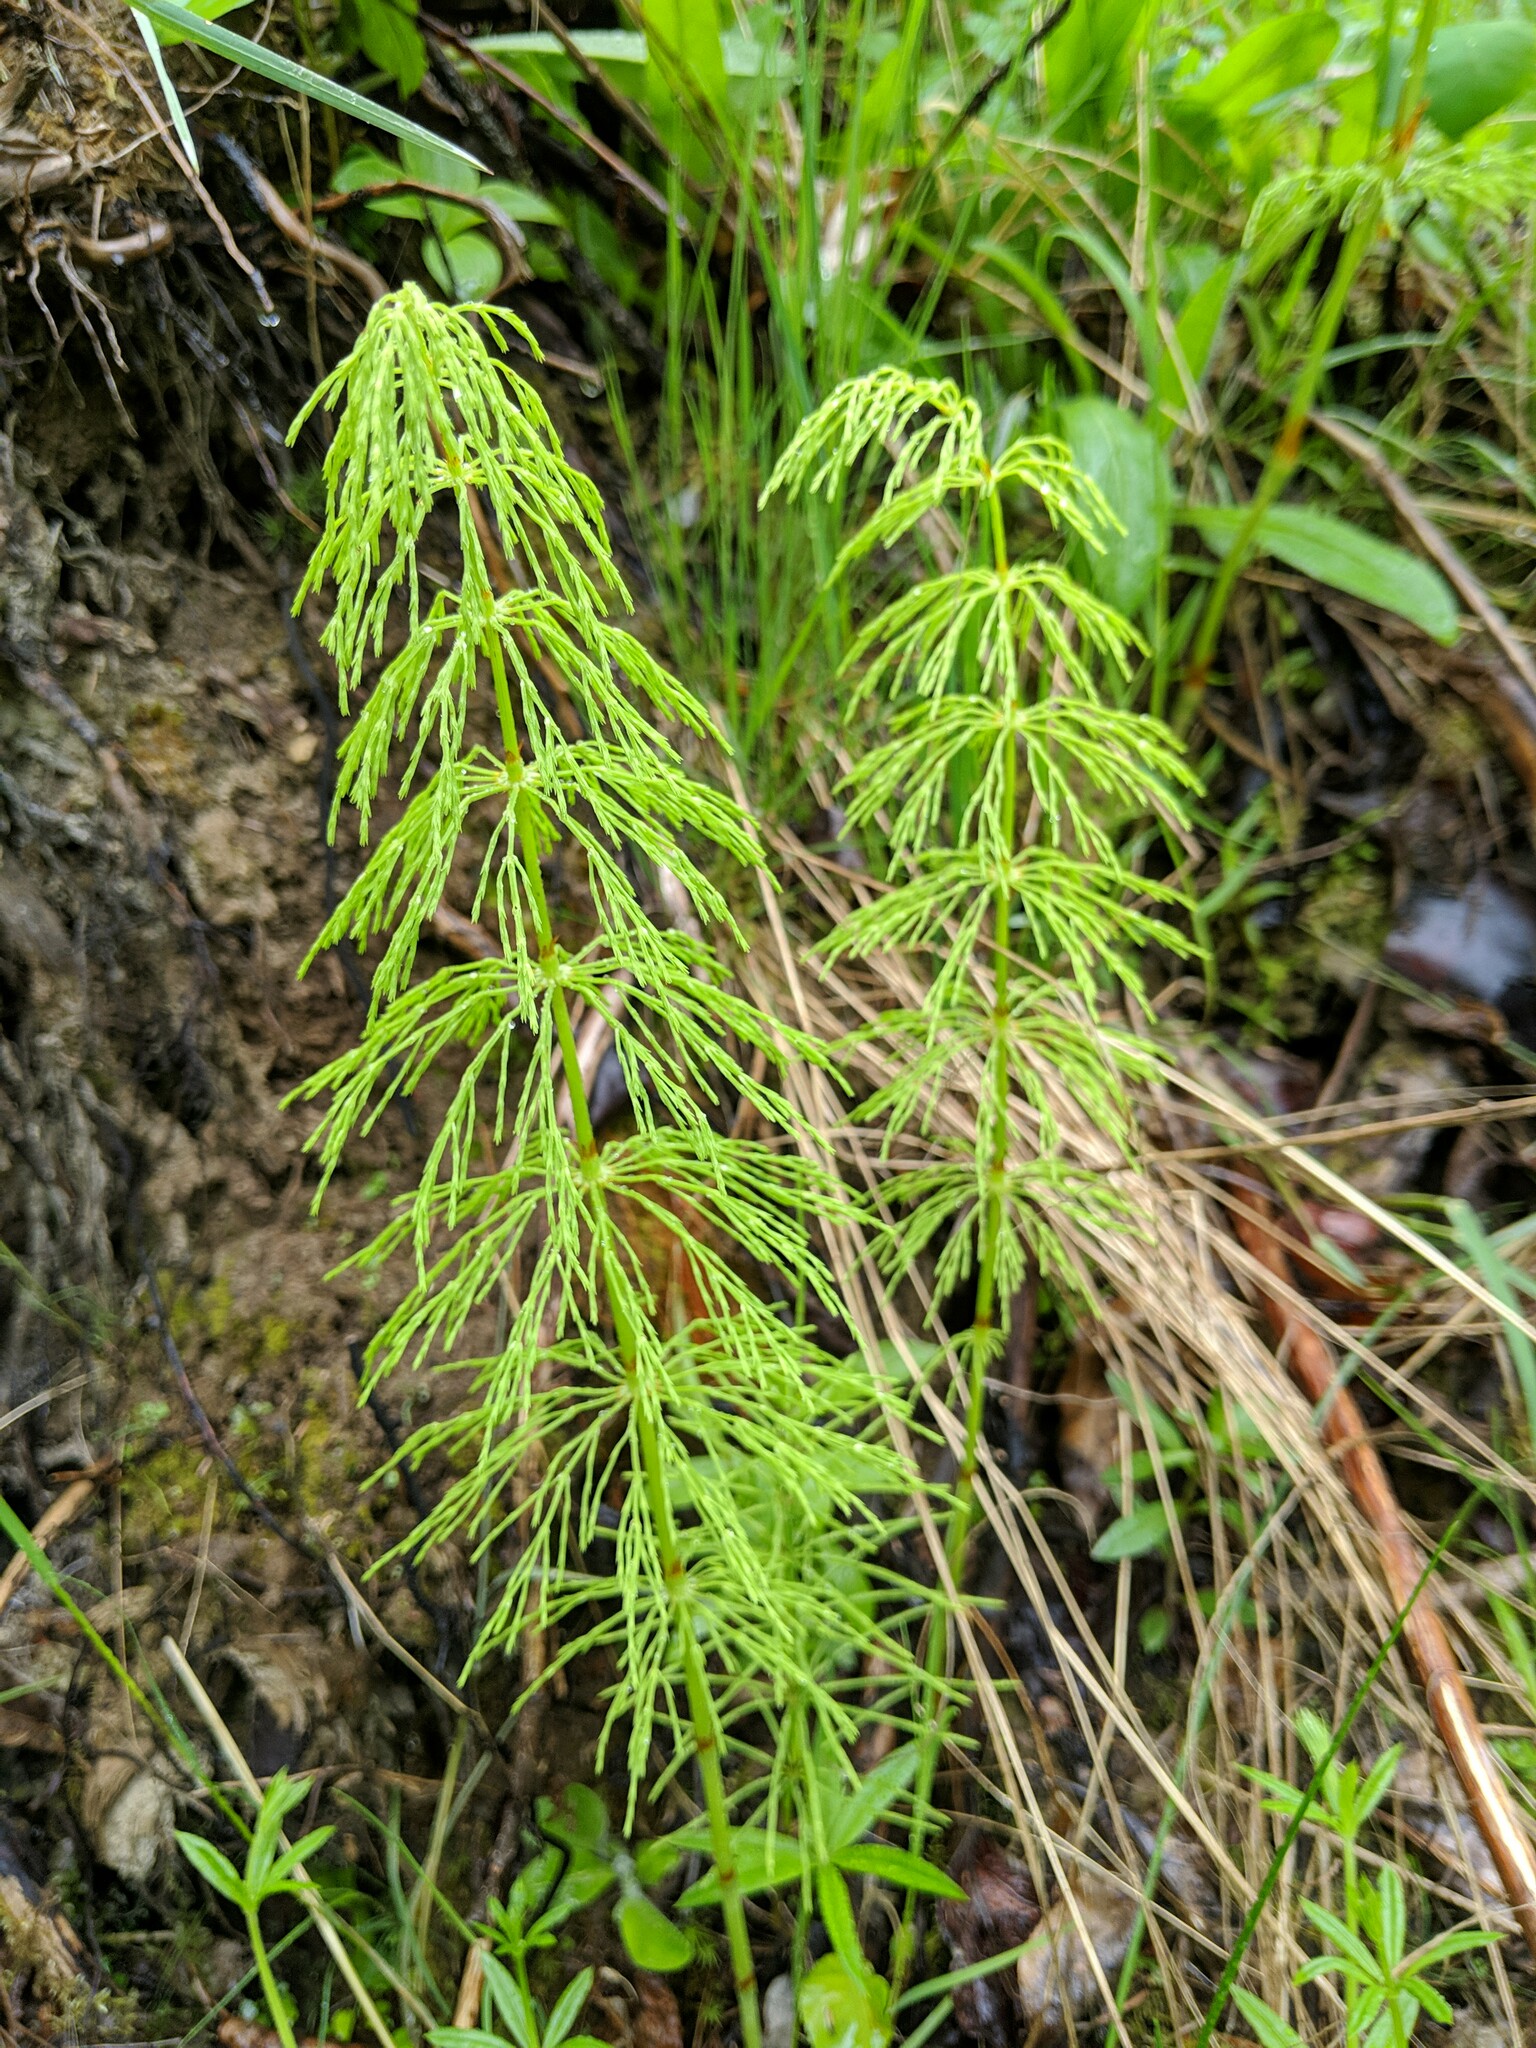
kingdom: Plantae
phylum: Tracheophyta
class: Polypodiopsida
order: Equisetales
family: Equisetaceae
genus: Equisetum
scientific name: Equisetum sylvaticum
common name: Wood horsetail
